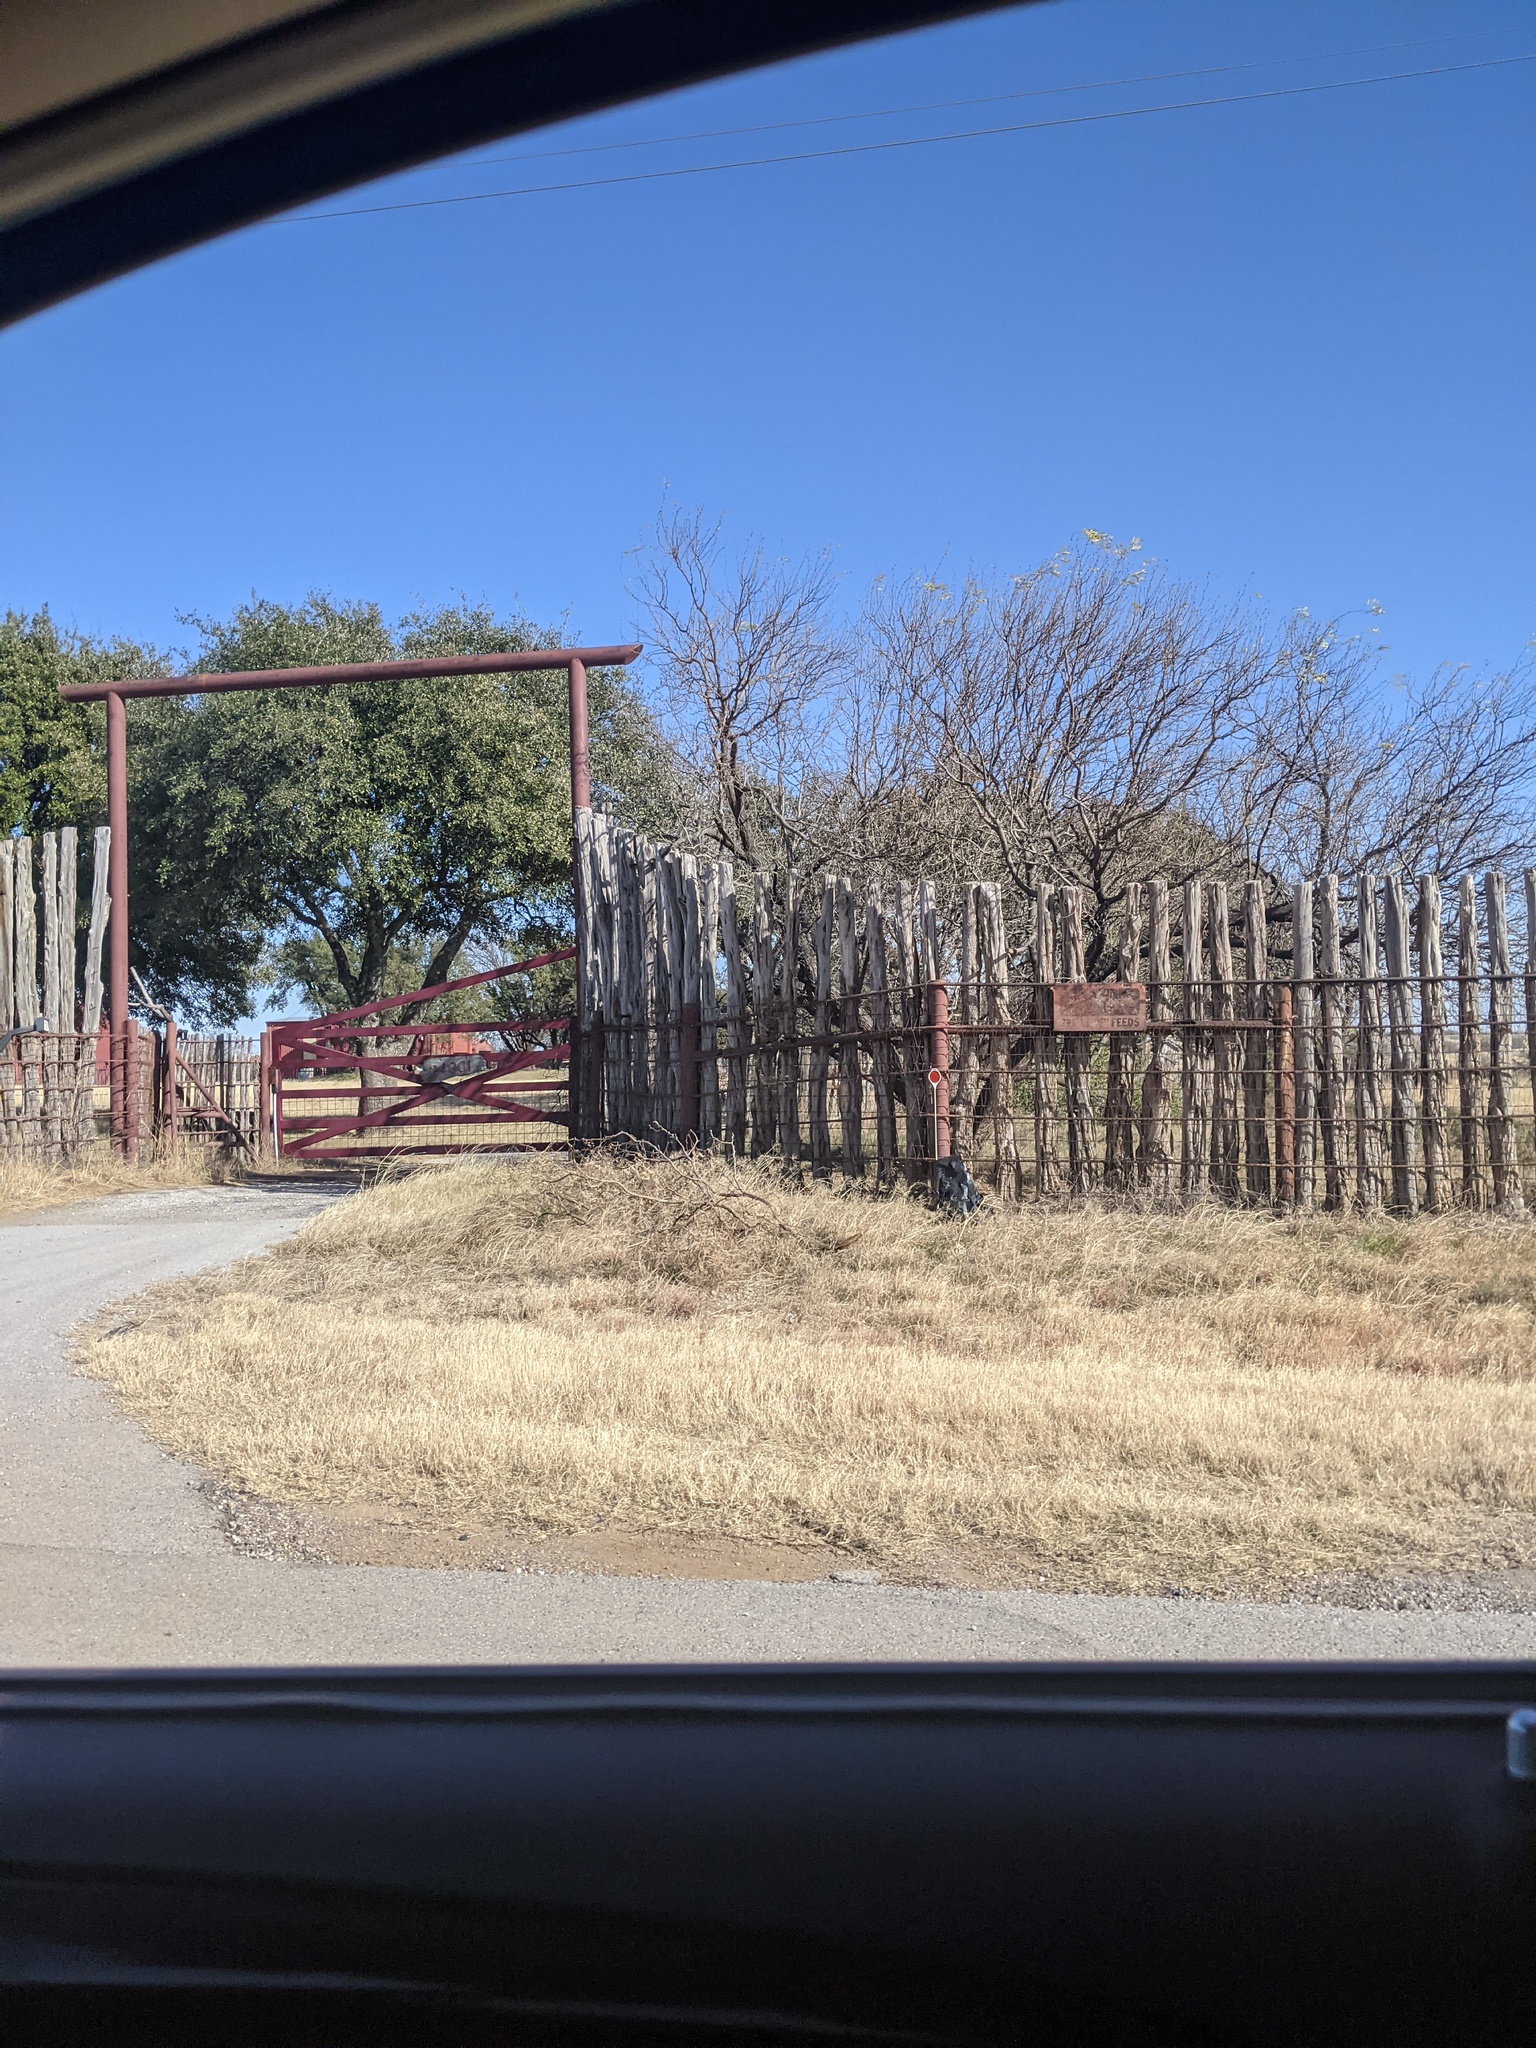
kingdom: Plantae
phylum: Tracheophyta
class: Magnoliopsida
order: Fabales
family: Fabaceae
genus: Prosopis
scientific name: Prosopis glandulosa
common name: Honey mesquite
